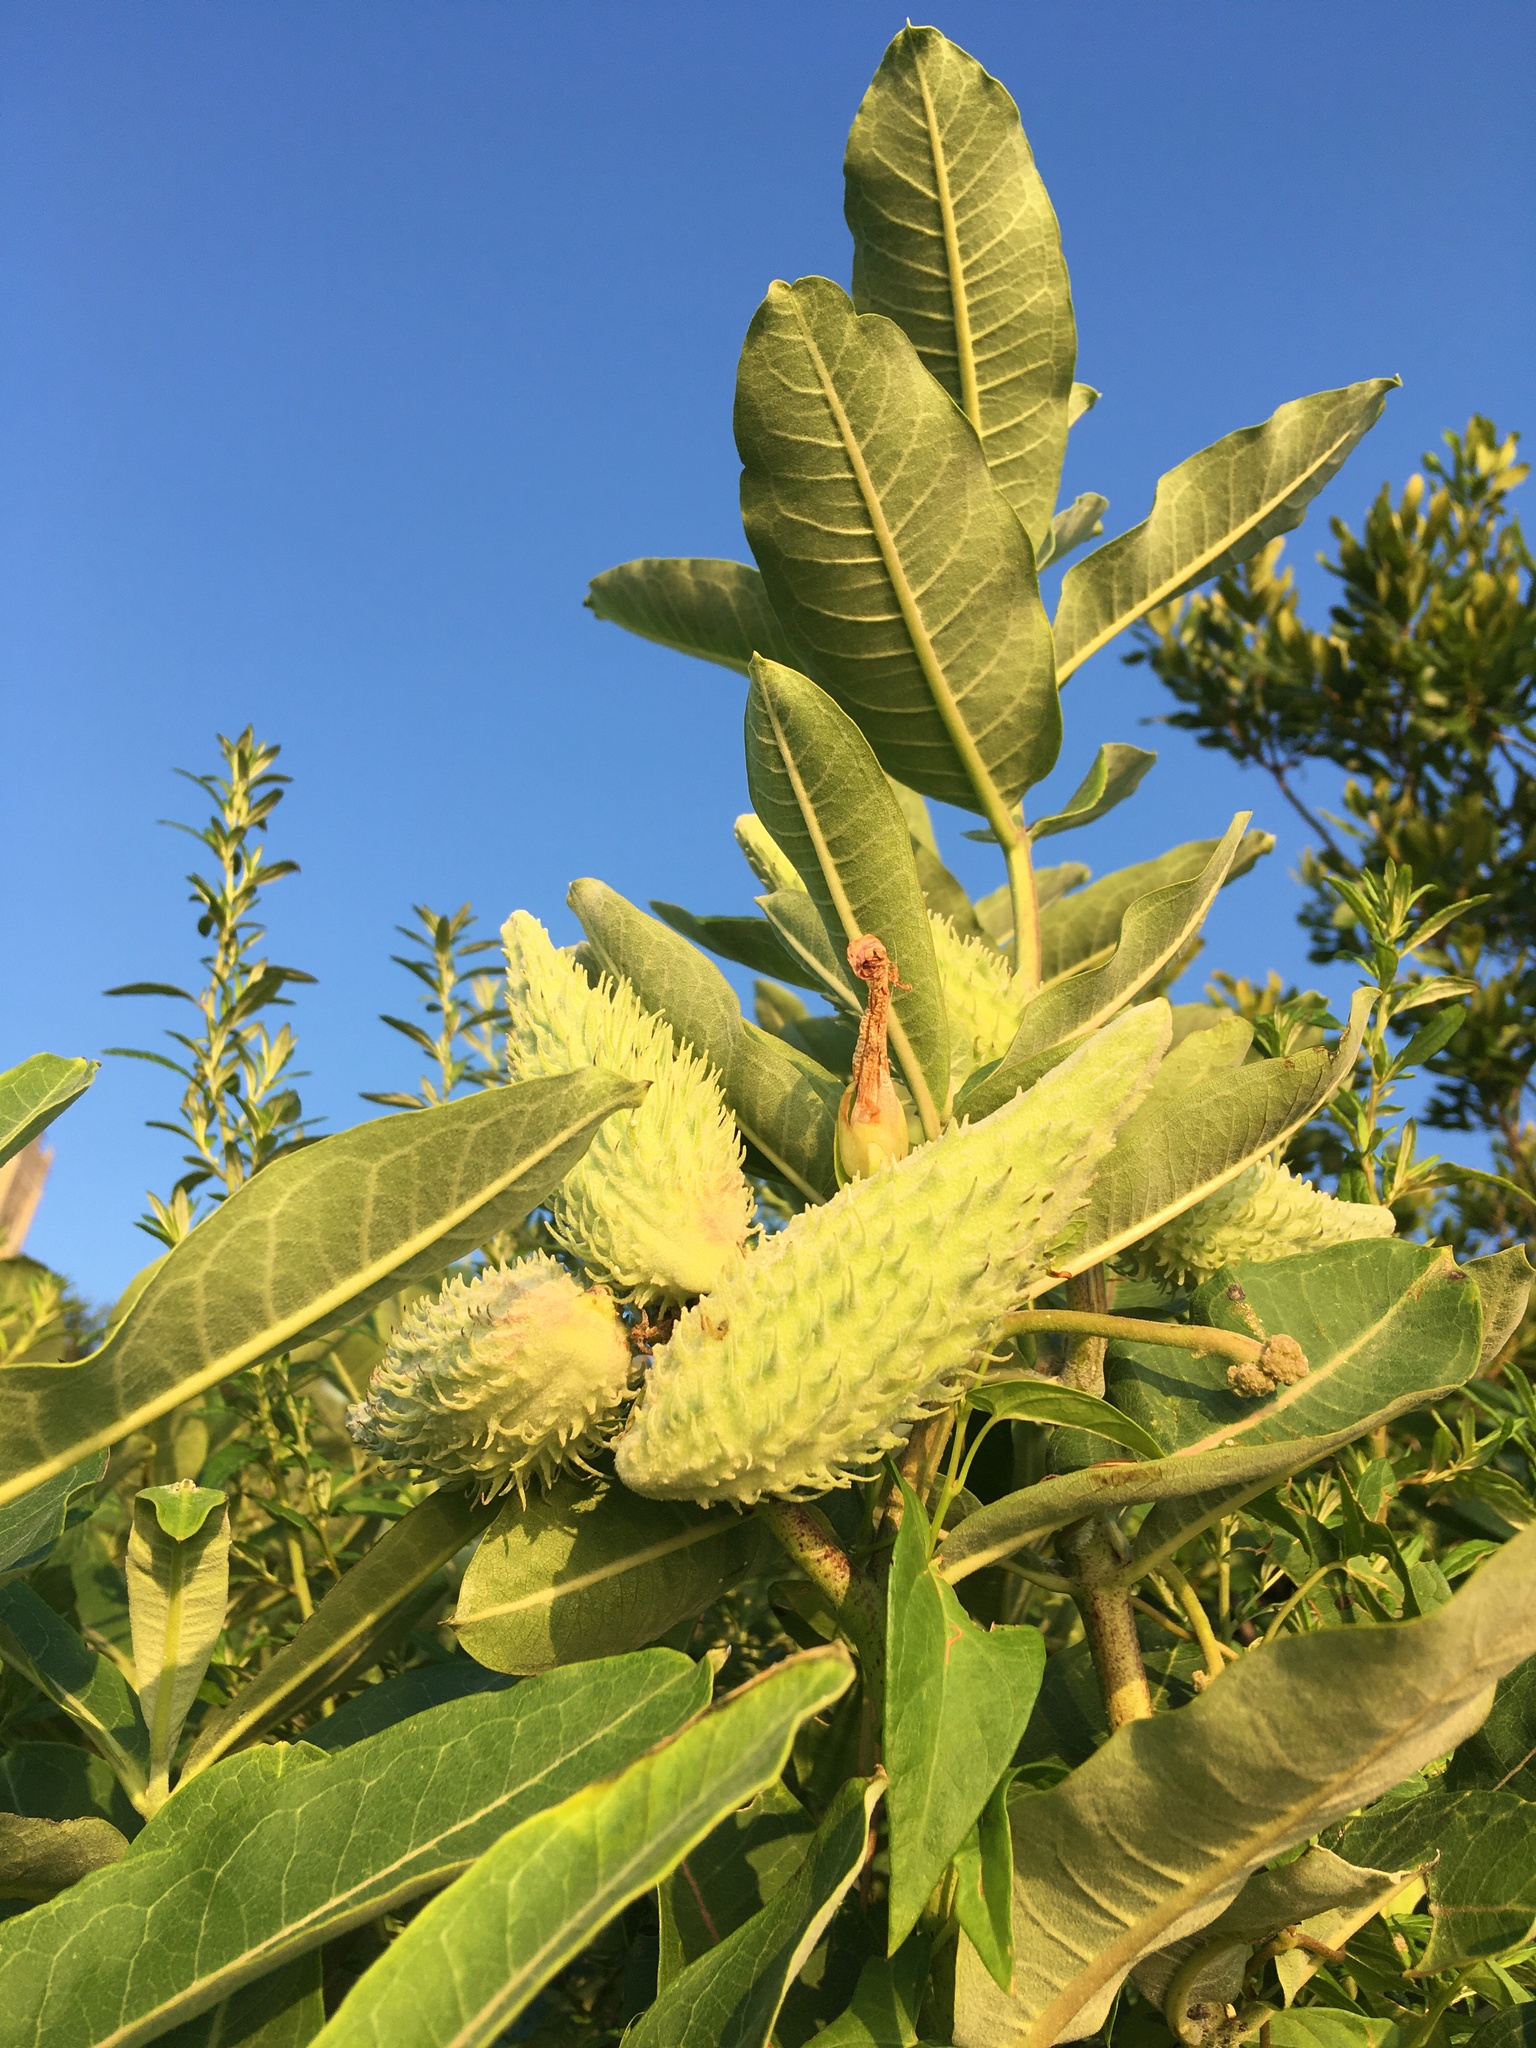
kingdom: Plantae
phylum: Tracheophyta
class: Magnoliopsida
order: Gentianales
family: Apocynaceae
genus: Asclepias
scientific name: Asclepias syriaca
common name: Common milkweed
